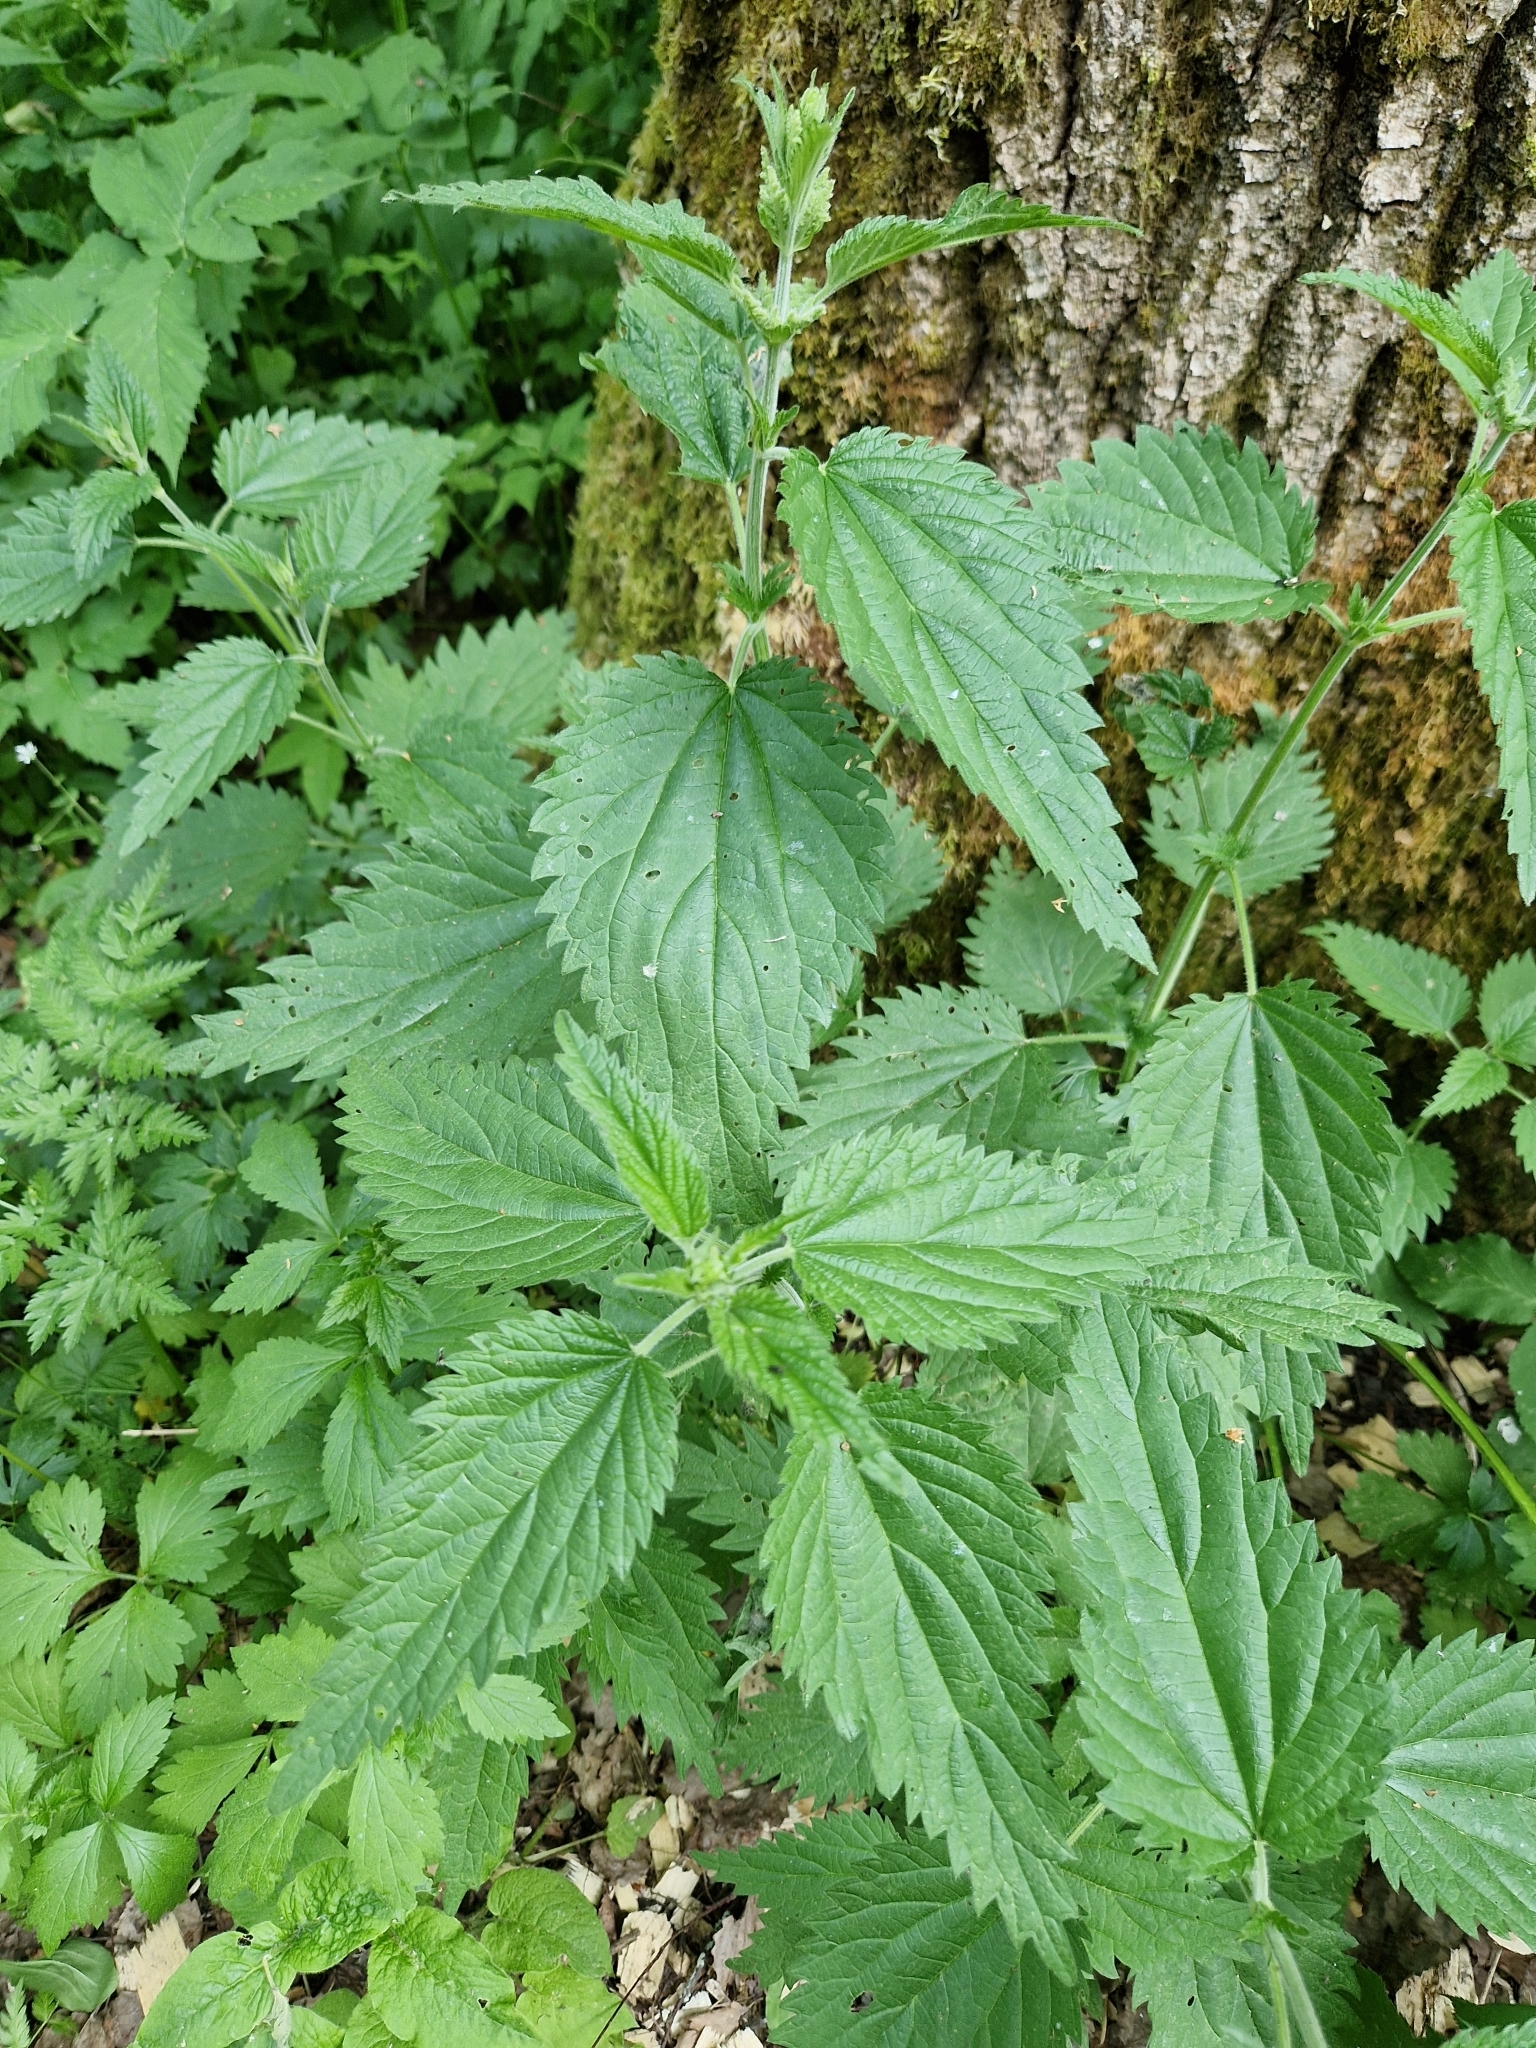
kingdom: Plantae
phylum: Tracheophyta
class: Magnoliopsida
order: Rosales
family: Urticaceae
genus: Urtica
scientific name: Urtica dioica
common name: Common nettle
